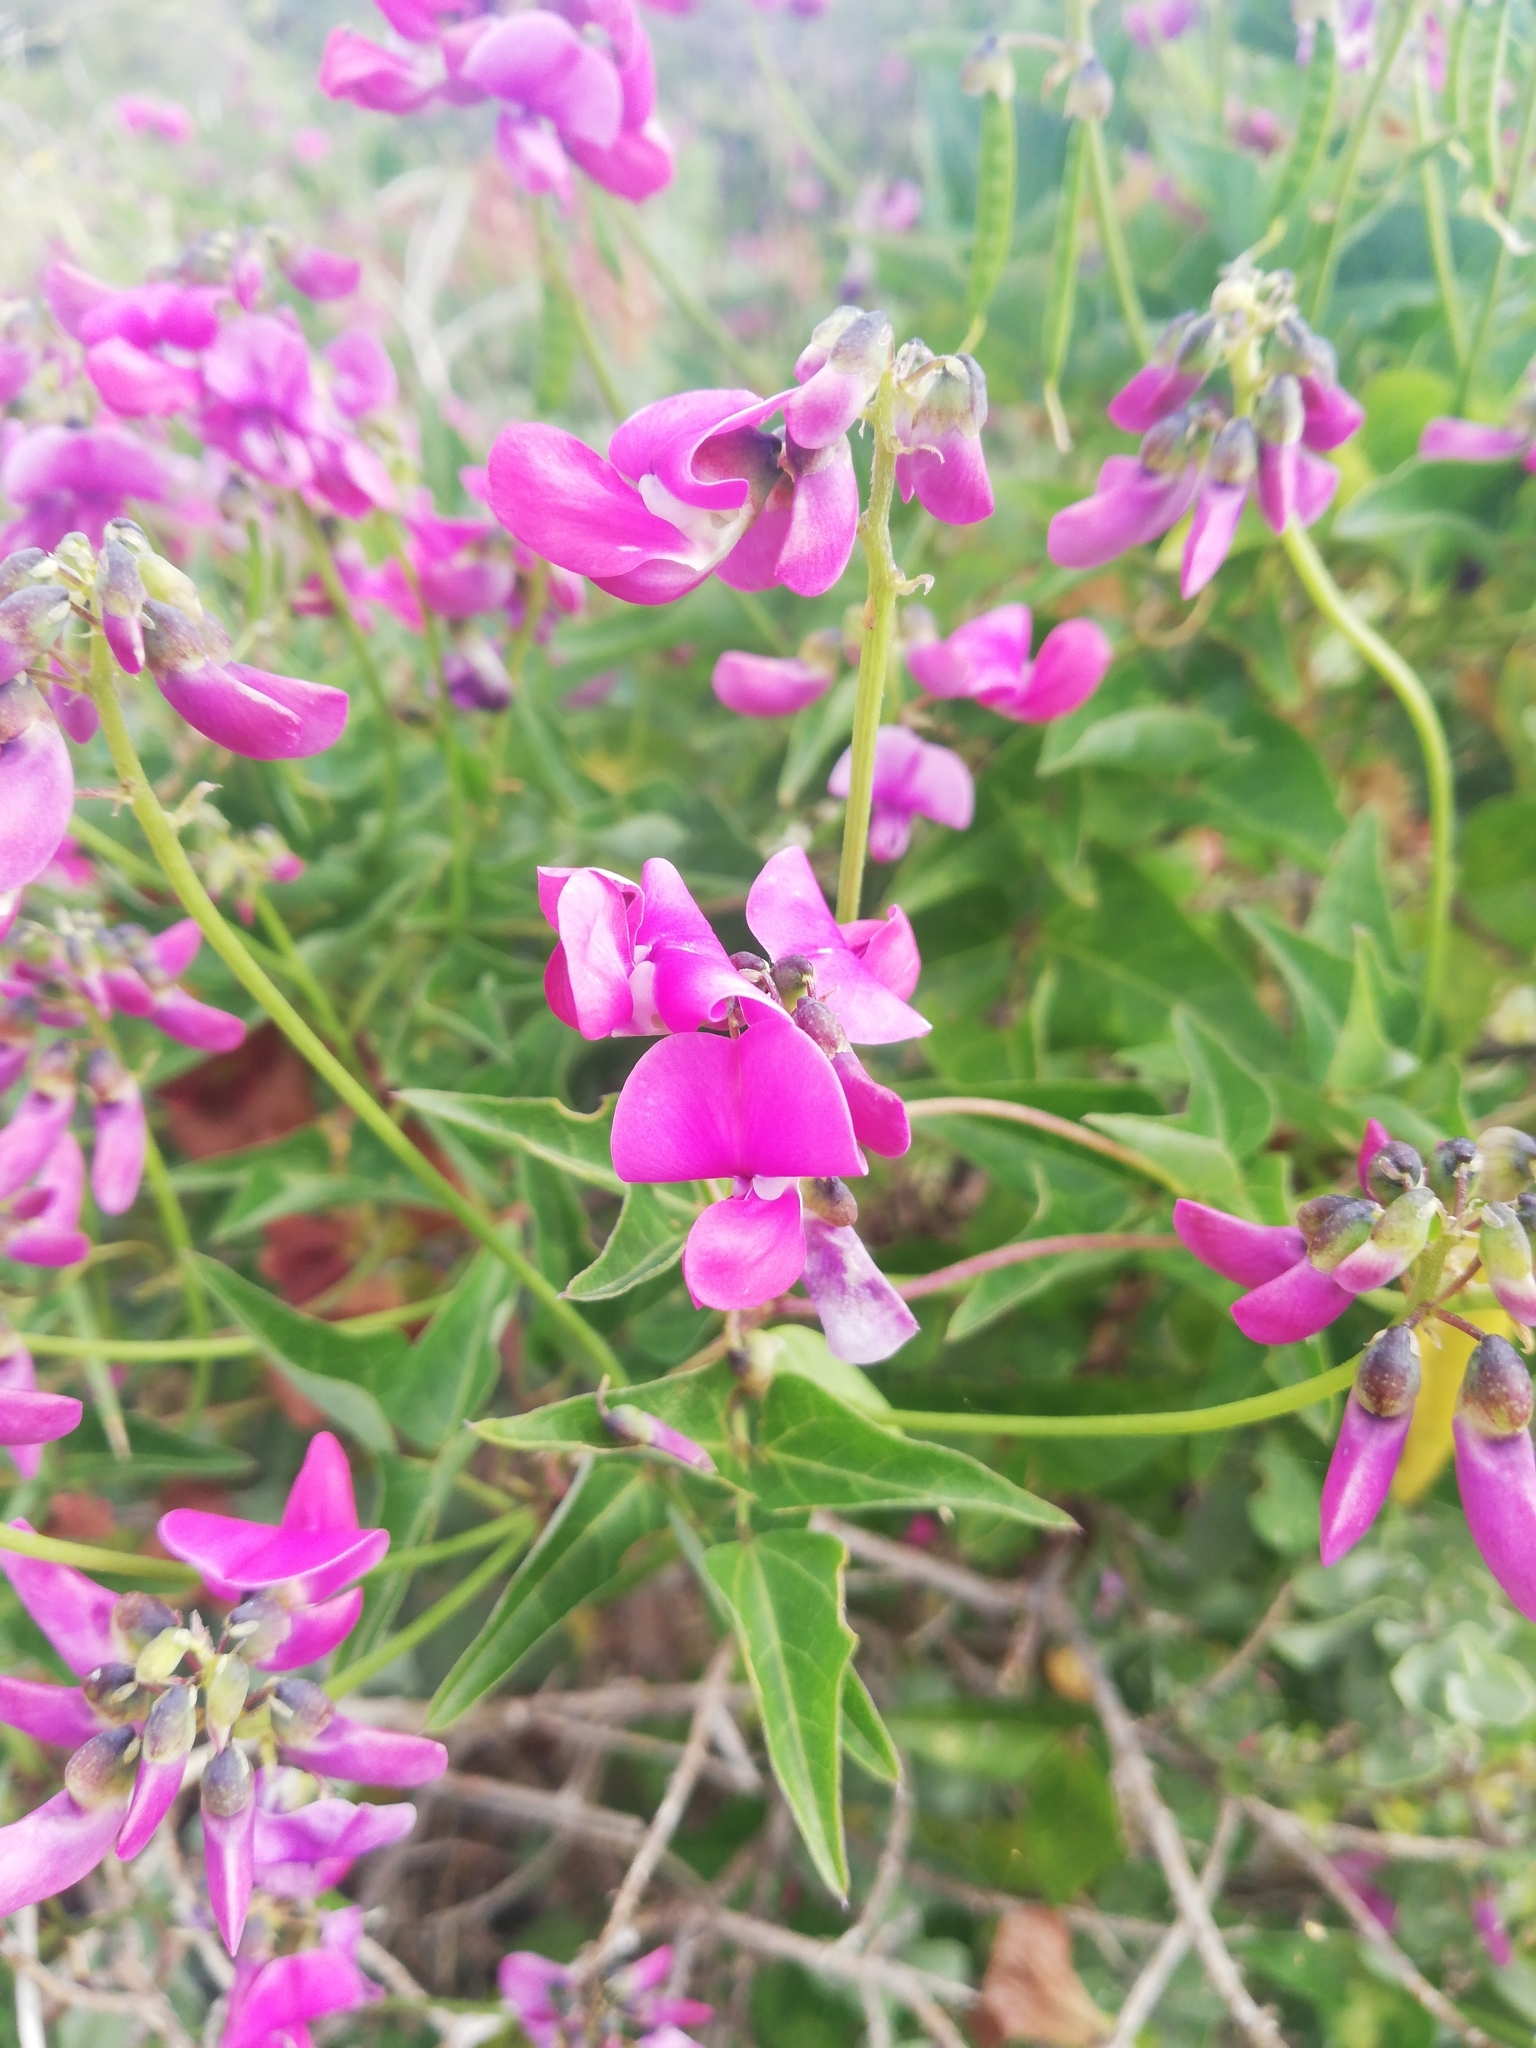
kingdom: Plantae
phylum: Tracheophyta
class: Magnoliopsida
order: Fabales
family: Fabaceae
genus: Dipogon
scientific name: Dipogon lignosus
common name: Okie bean
